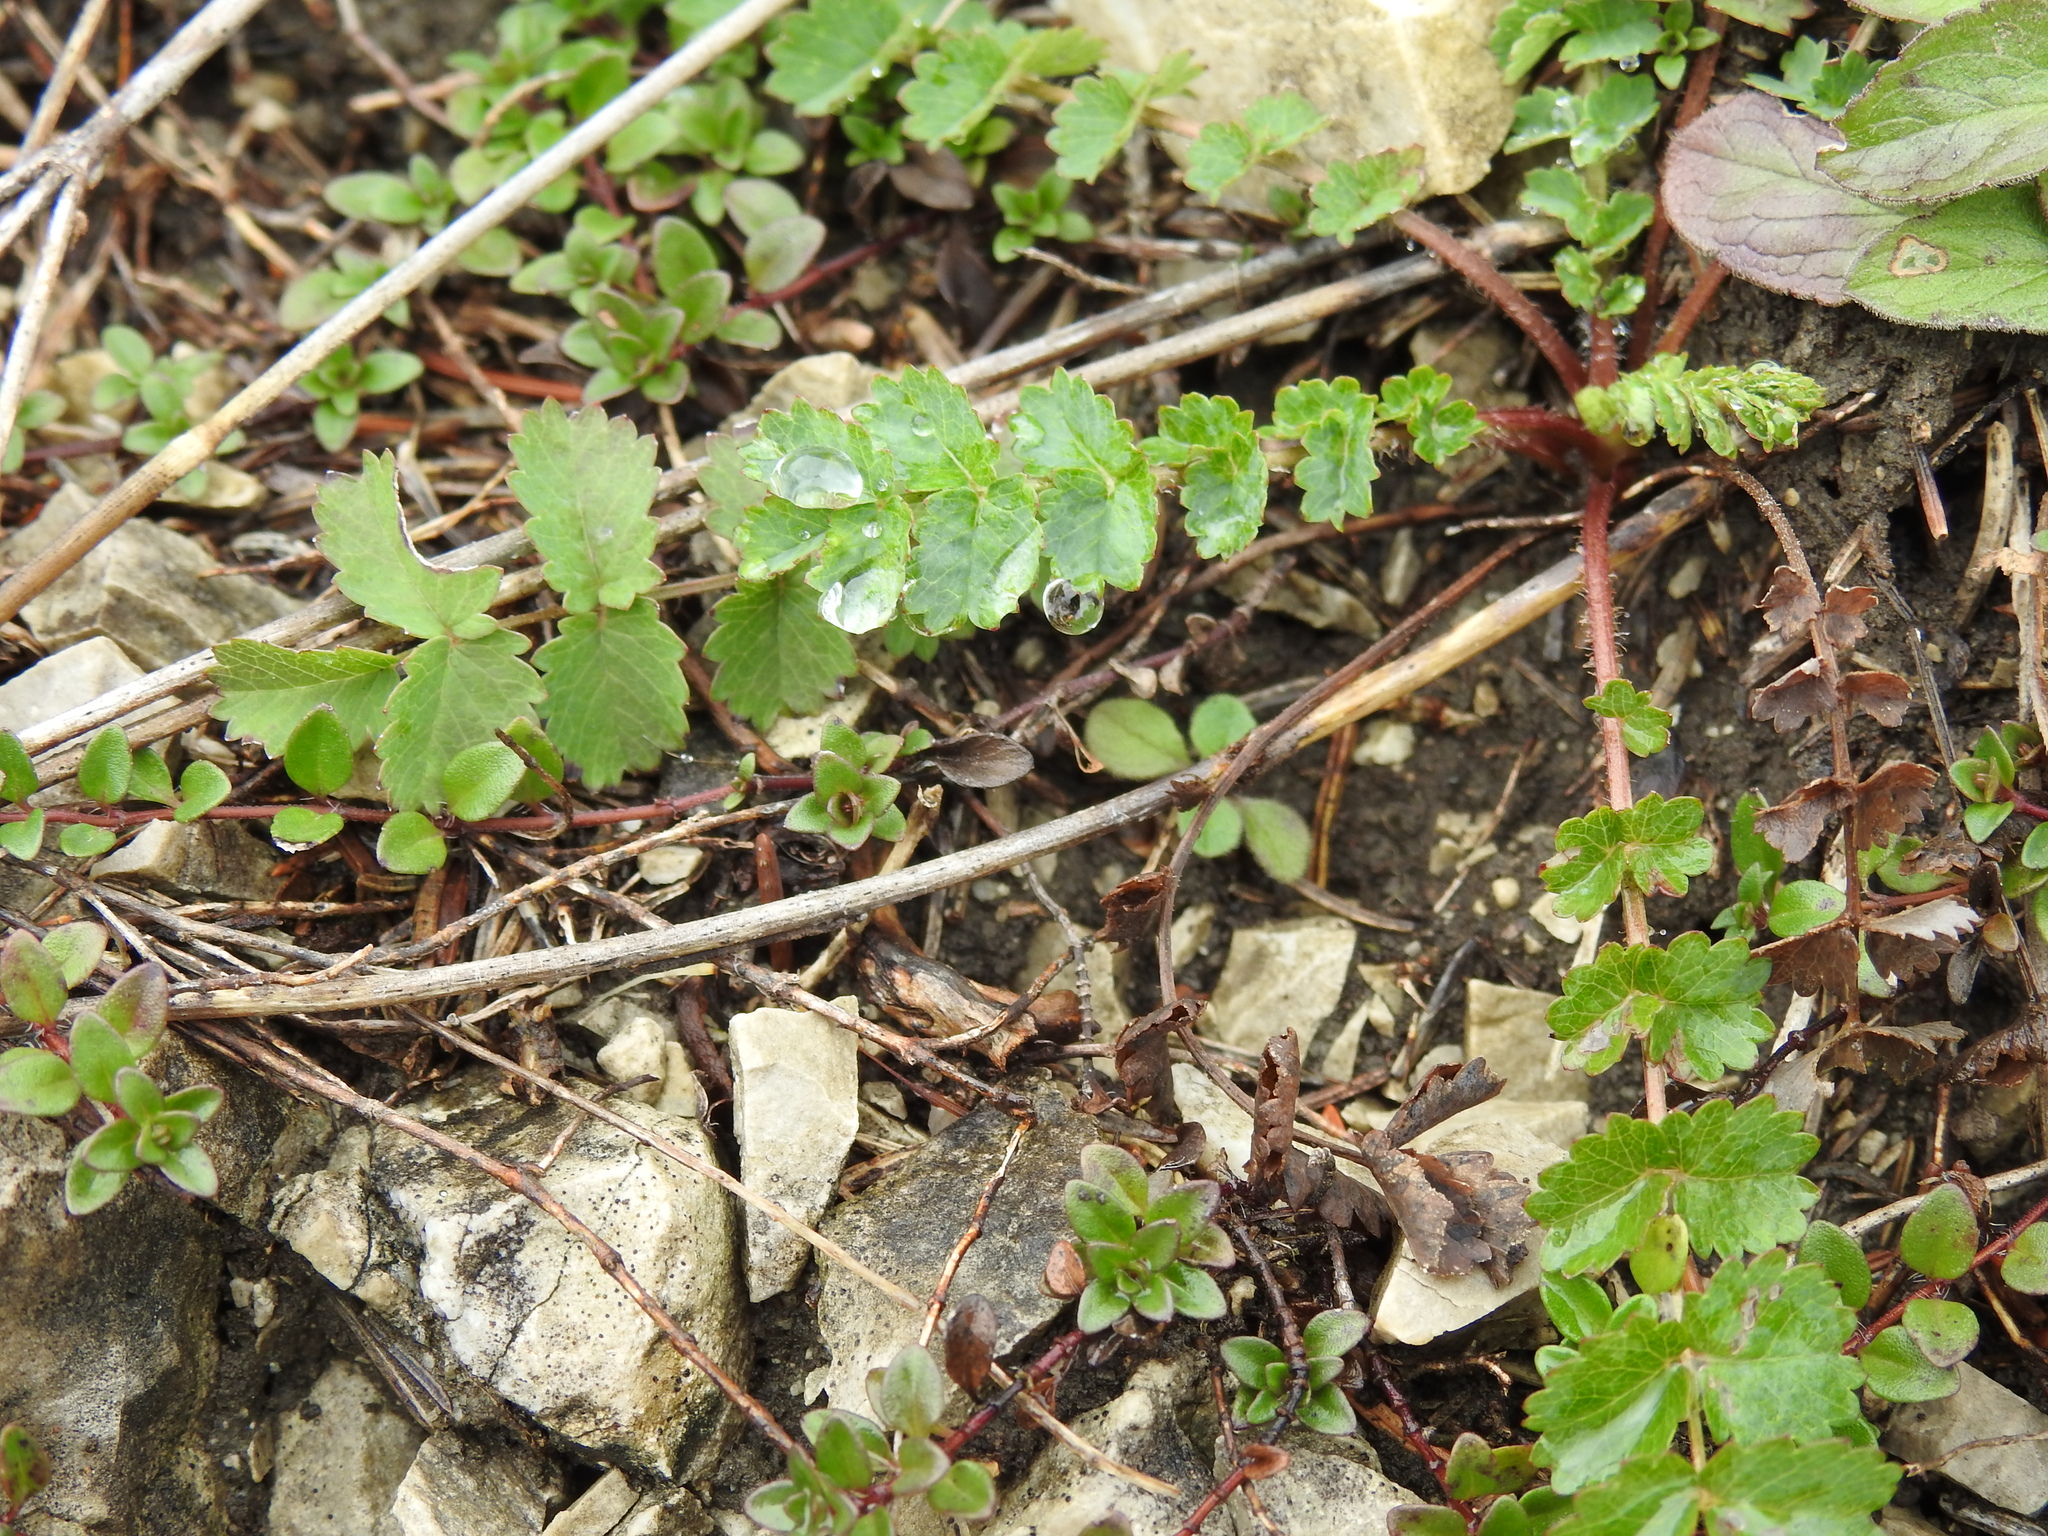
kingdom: Plantae
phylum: Tracheophyta
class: Magnoliopsida
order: Rosales
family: Rosaceae
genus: Poterium
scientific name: Poterium sanguisorba
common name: Salad burnet
